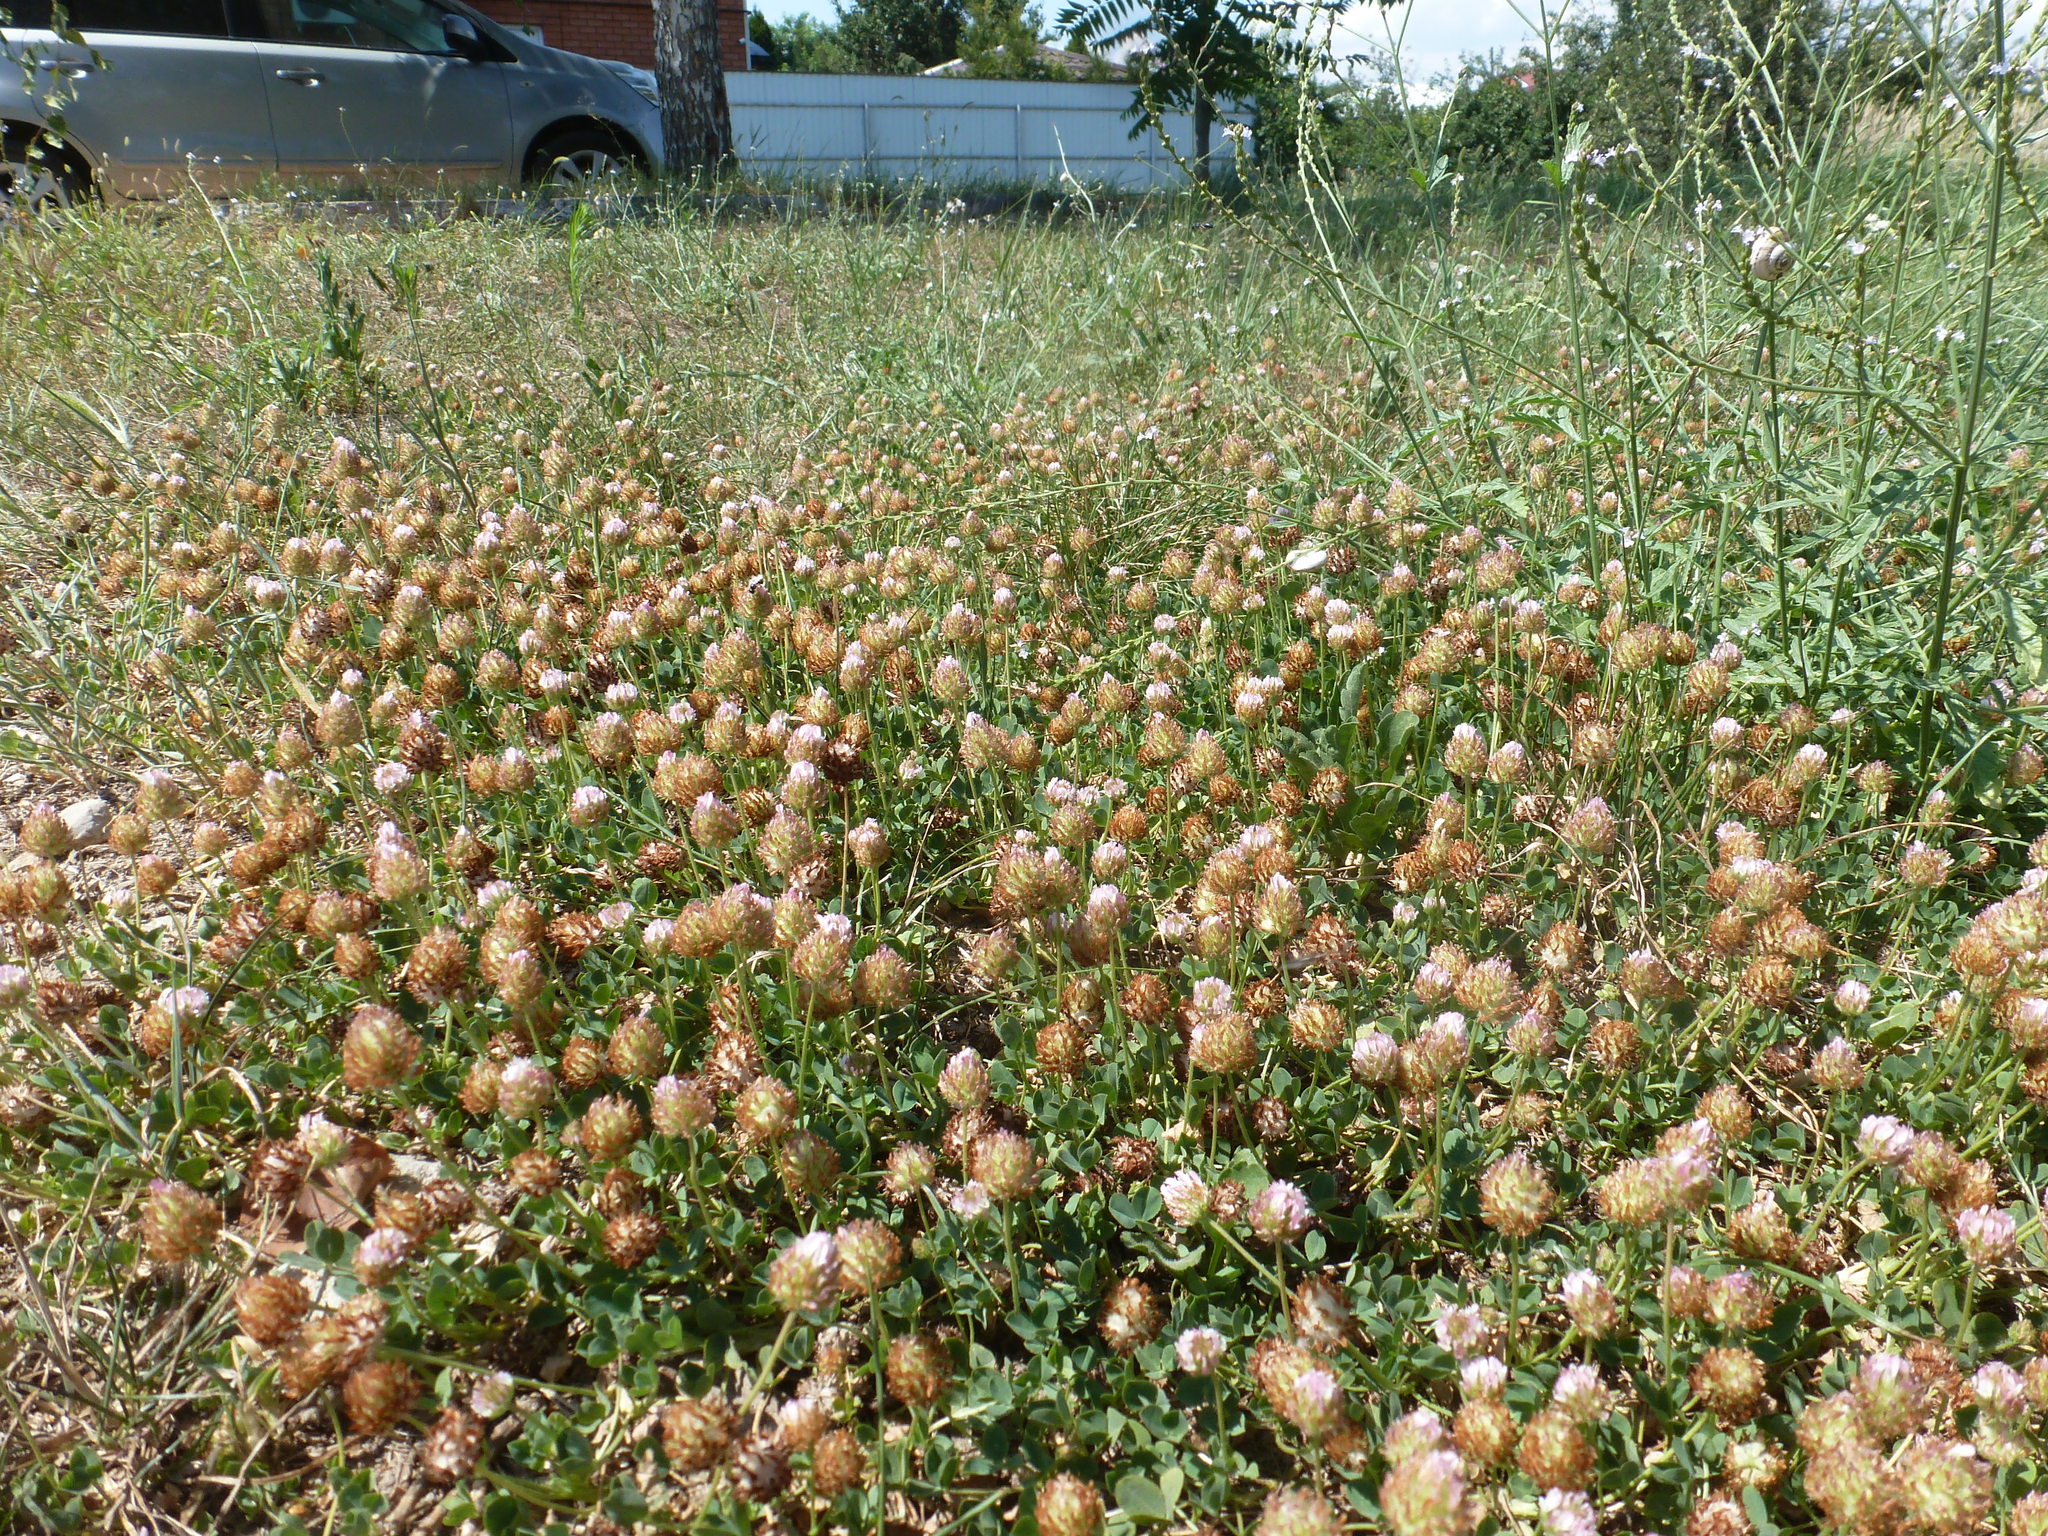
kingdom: Plantae
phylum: Tracheophyta
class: Magnoliopsida
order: Fabales
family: Fabaceae
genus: Trifolium
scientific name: Trifolium fragiferum
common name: Strawberry clover
